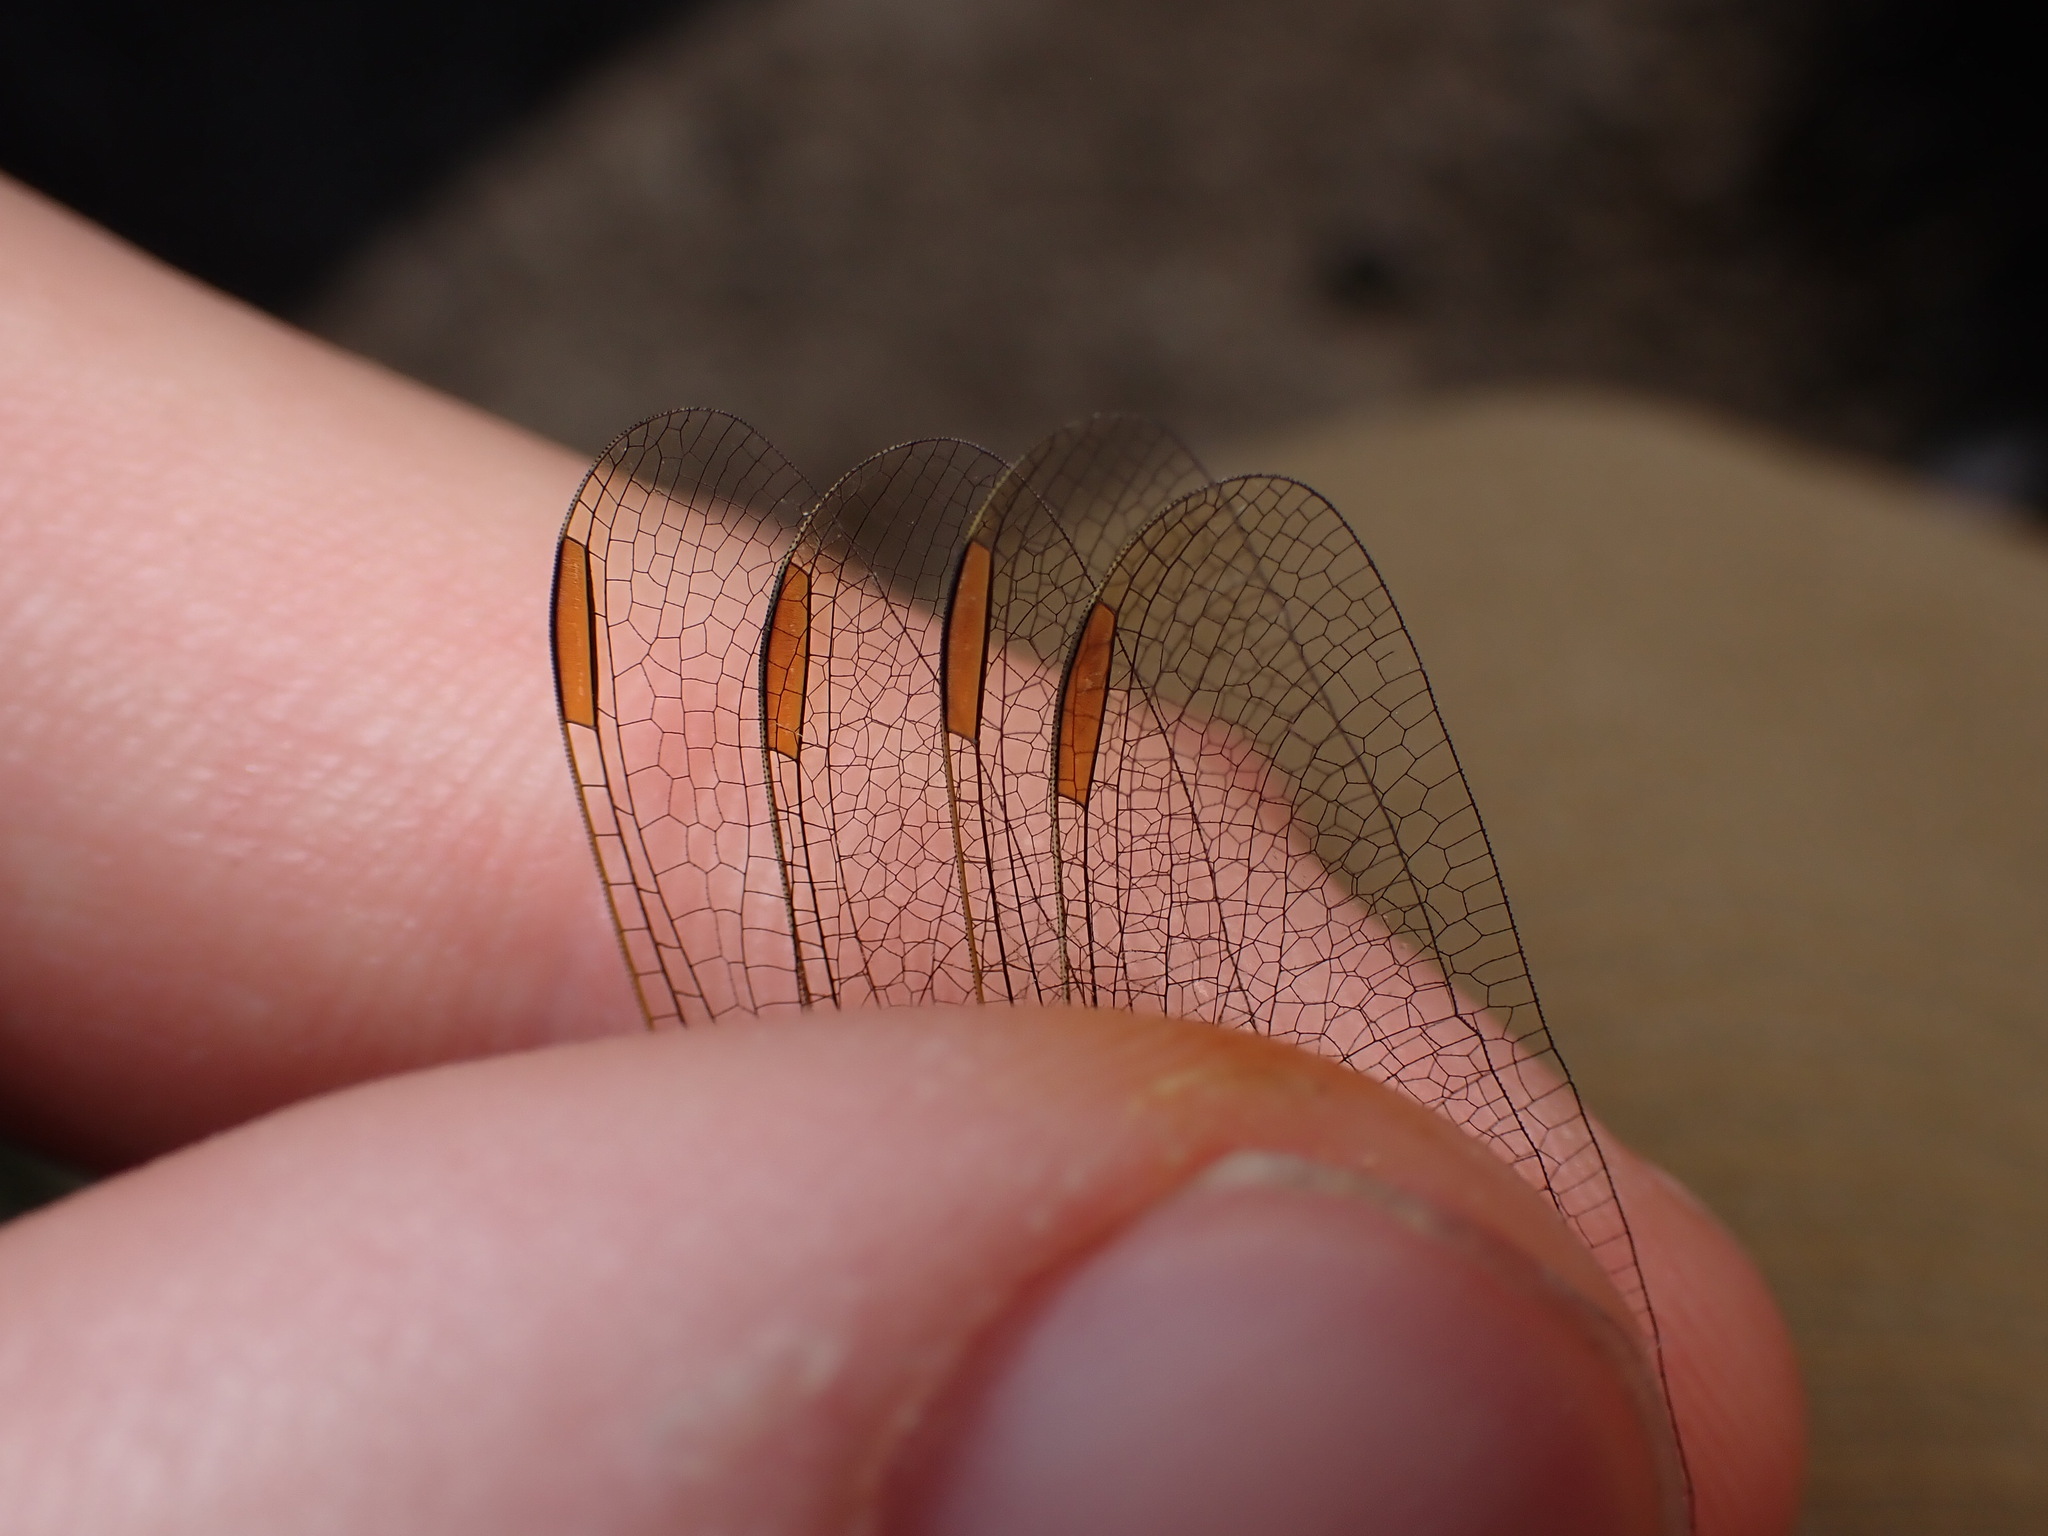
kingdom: Animalia
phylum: Arthropoda
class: Insecta
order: Odonata
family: Libellulidae
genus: Orthetrum
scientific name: Orthetrum coerulescens
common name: Keeled skimmer
